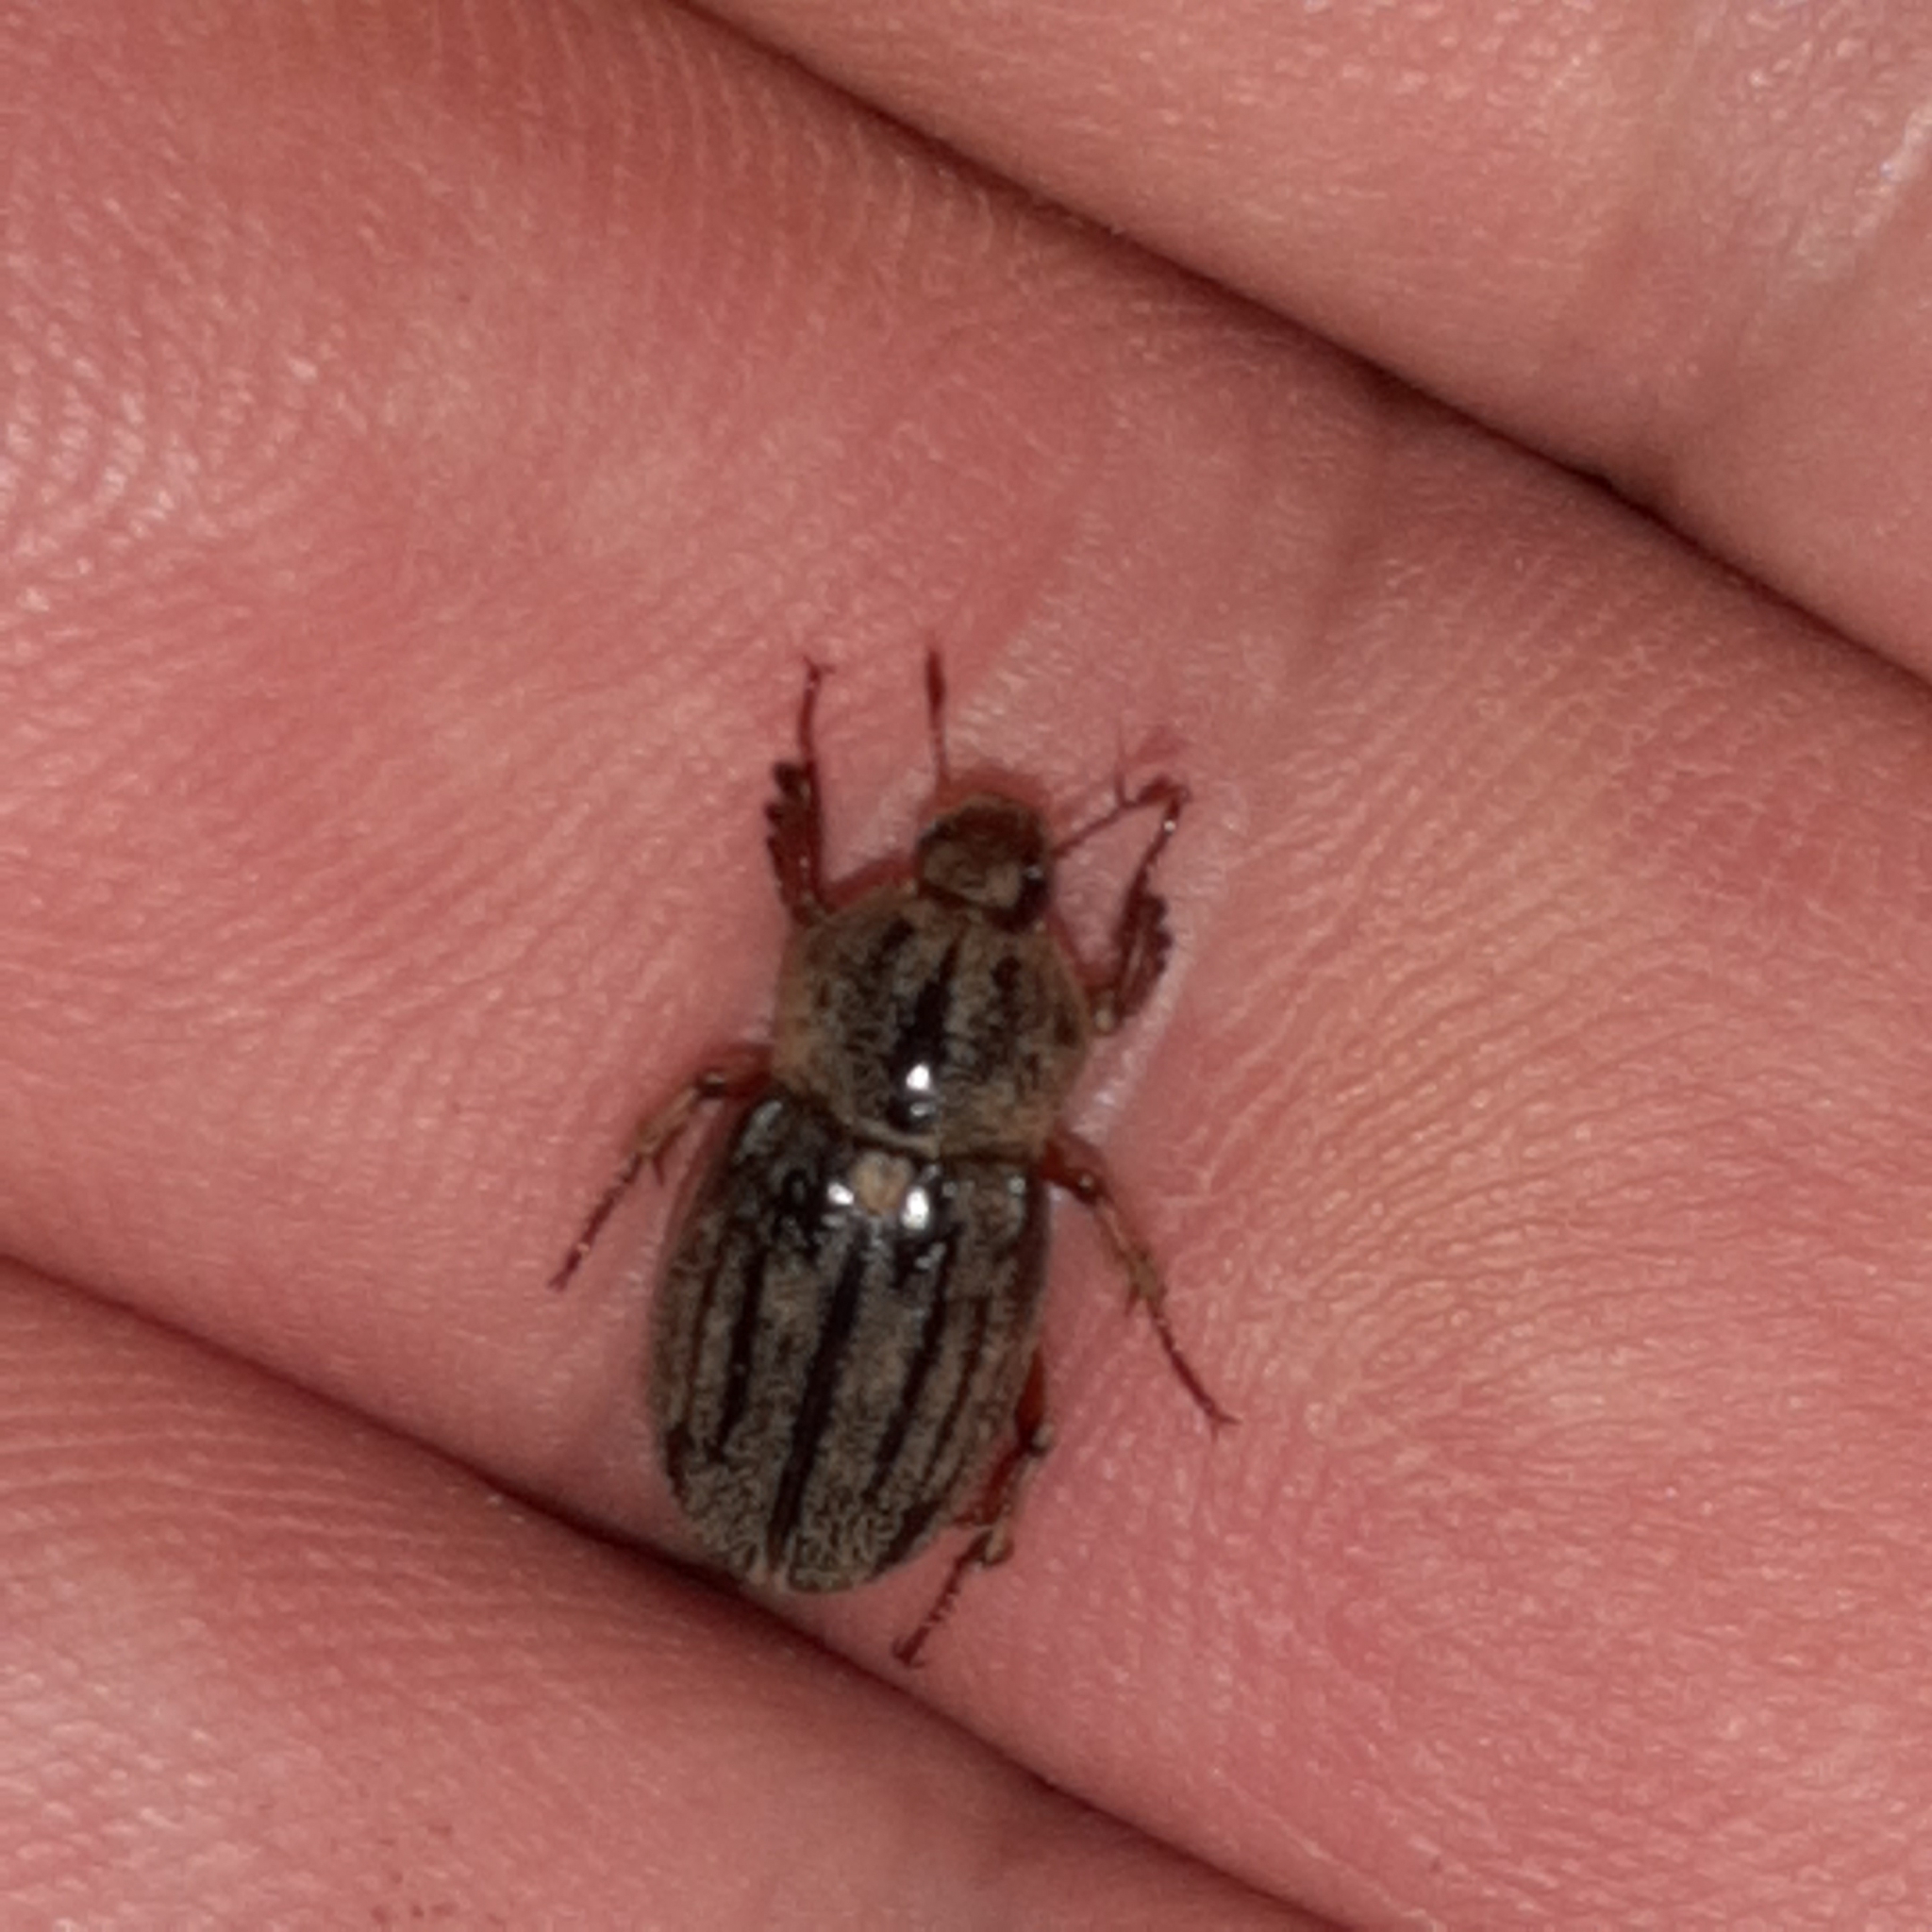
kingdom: Animalia
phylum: Arthropoda
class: Insecta
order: Coleoptera
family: Scarabaeidae
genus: Faula
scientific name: Faula centralis
